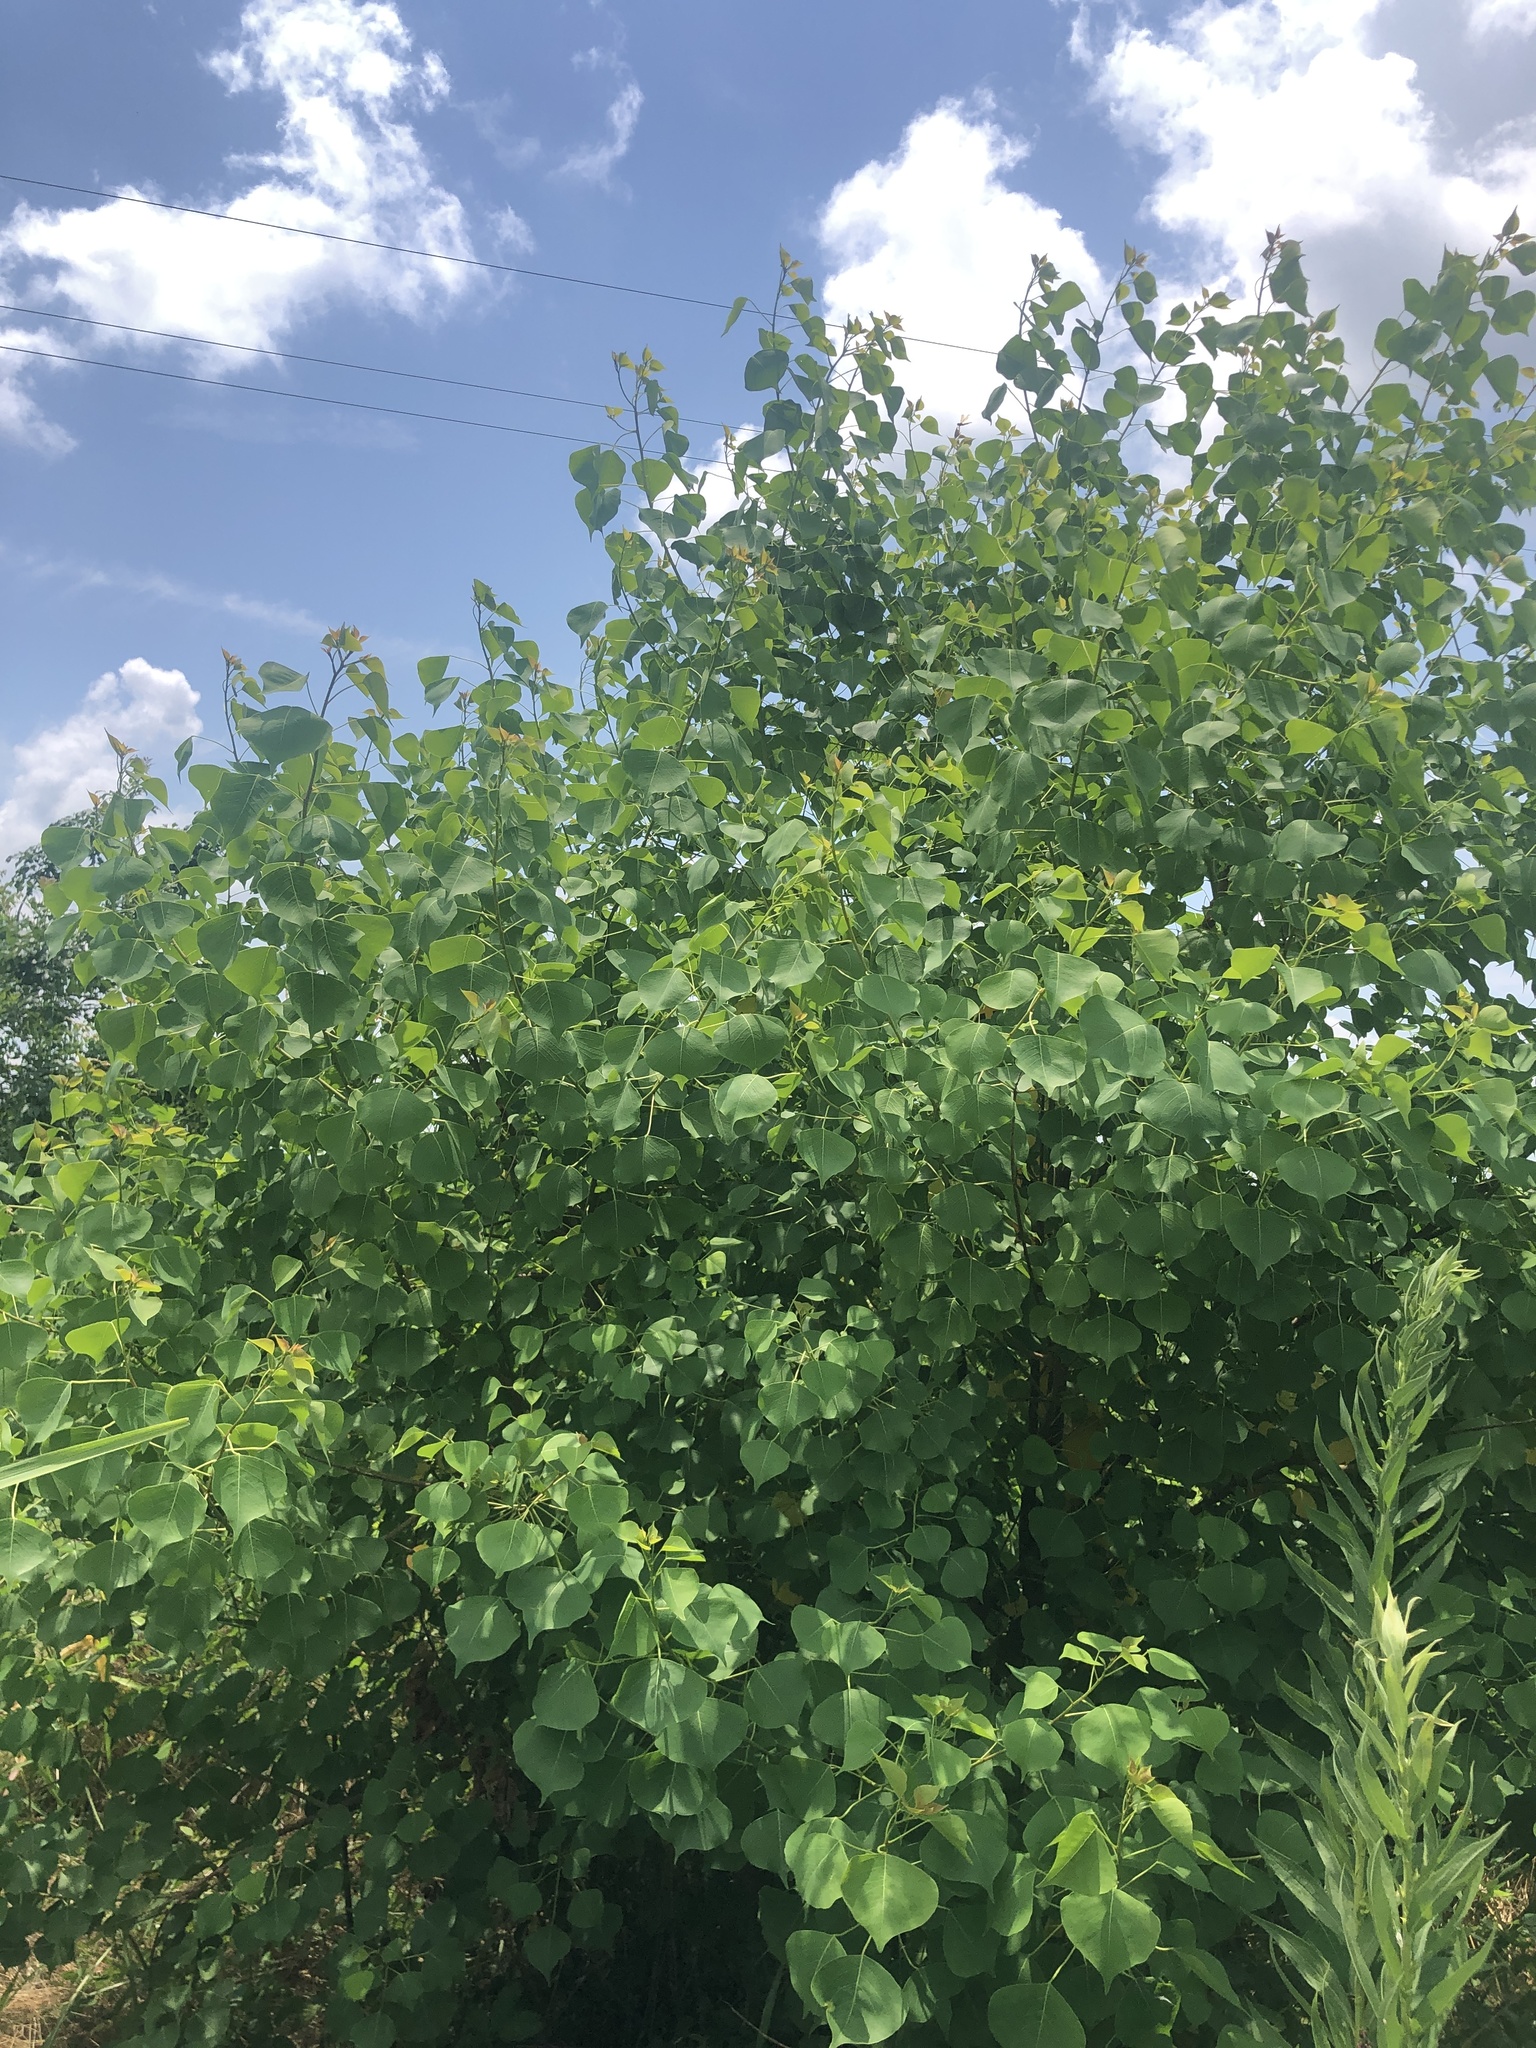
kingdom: Plantae
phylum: Tracheophyta
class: Magnoliopsida
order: Malpighiales
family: Euphorbiaceae
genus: Triadica
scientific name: Triadica sebifera
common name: Chinese tallow
